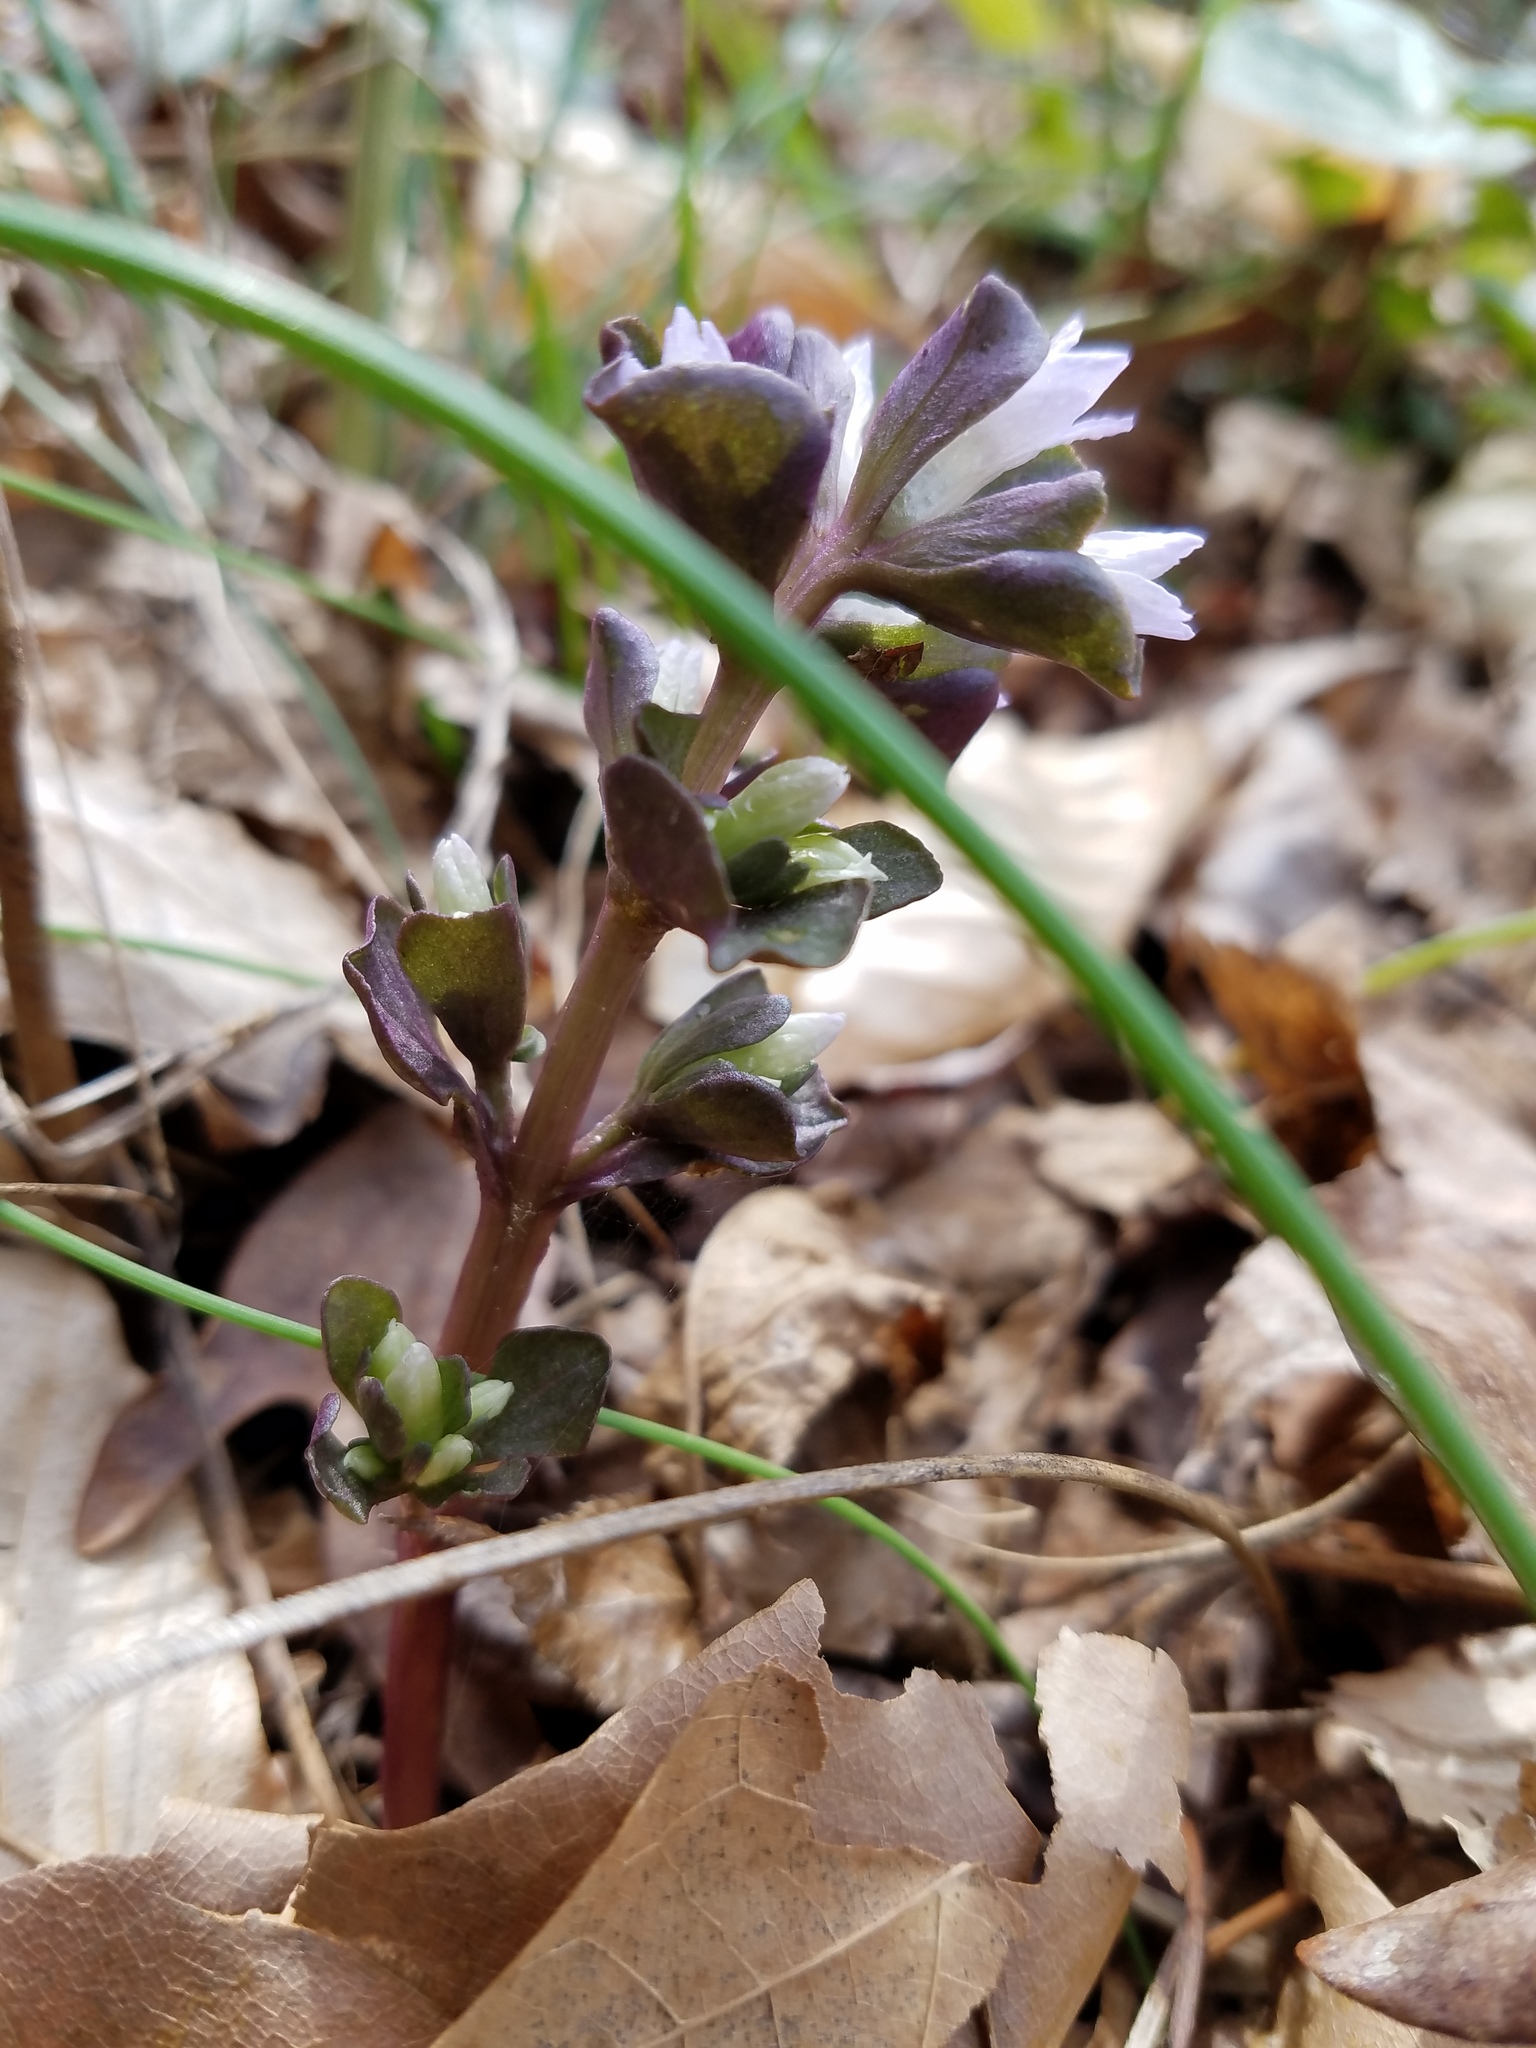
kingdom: Plantae
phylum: Tracheophyta
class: Magnoliopsida
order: Gentianales
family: Gentianaceae
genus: Obolaria
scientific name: Obolaria virginica
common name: Pennywort
